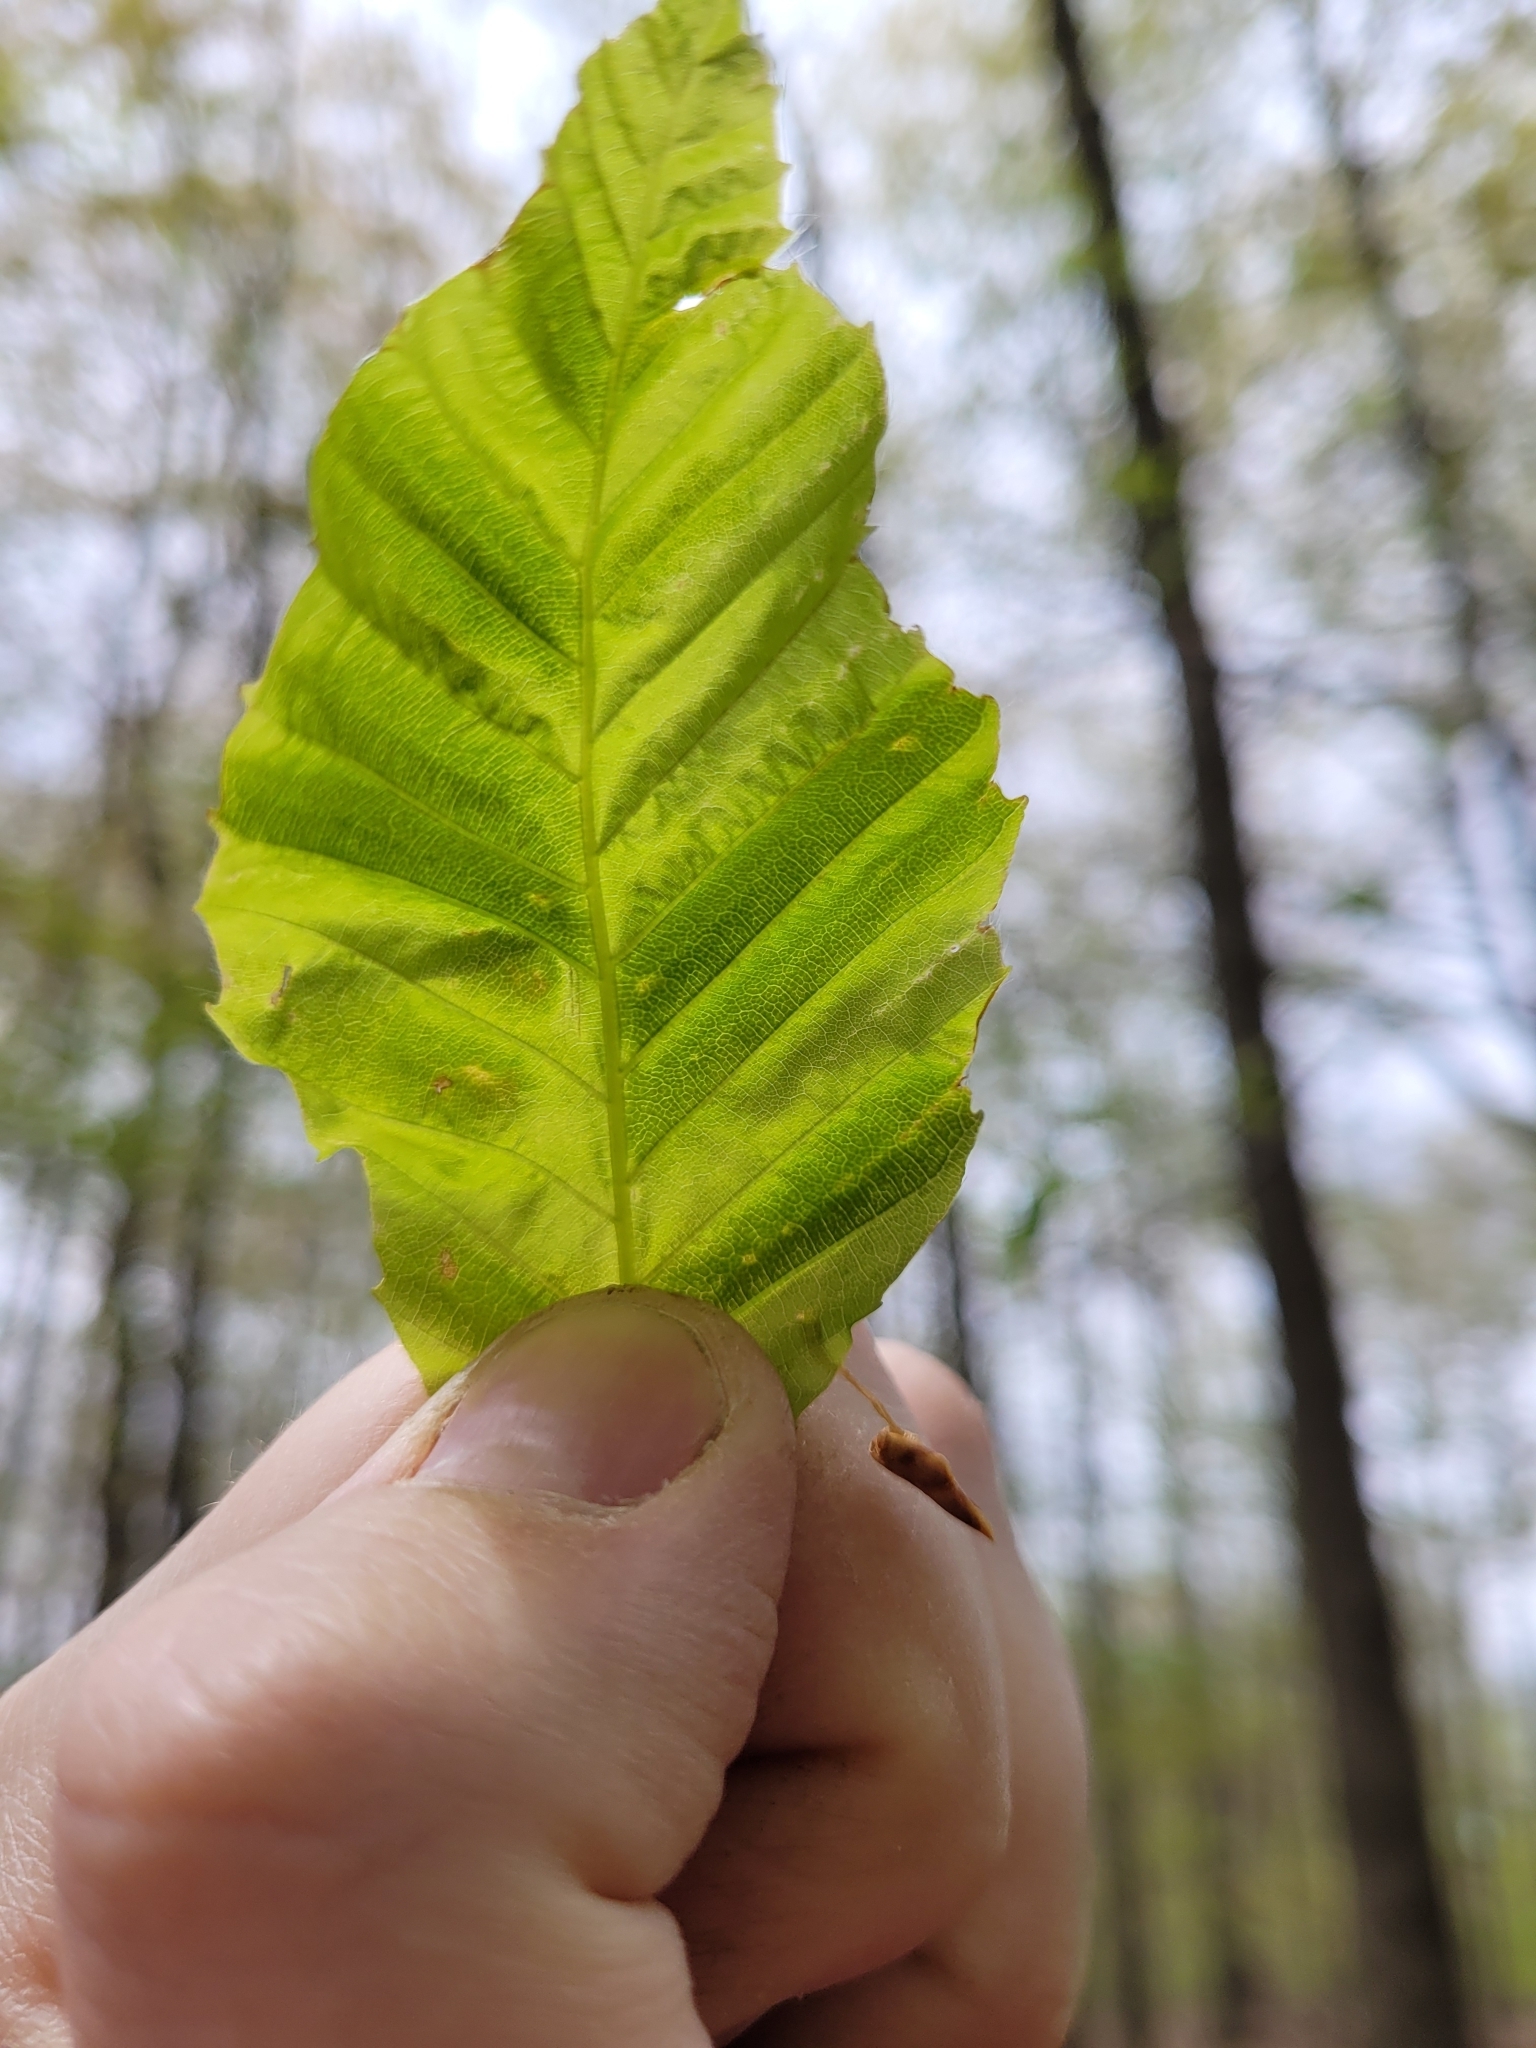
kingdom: Animalia
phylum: Nematoda
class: Chromadorea
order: Rhabditida
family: Anguinidae
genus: Litylenchus
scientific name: Litylenchus crenatae
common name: Beech leaf disease
